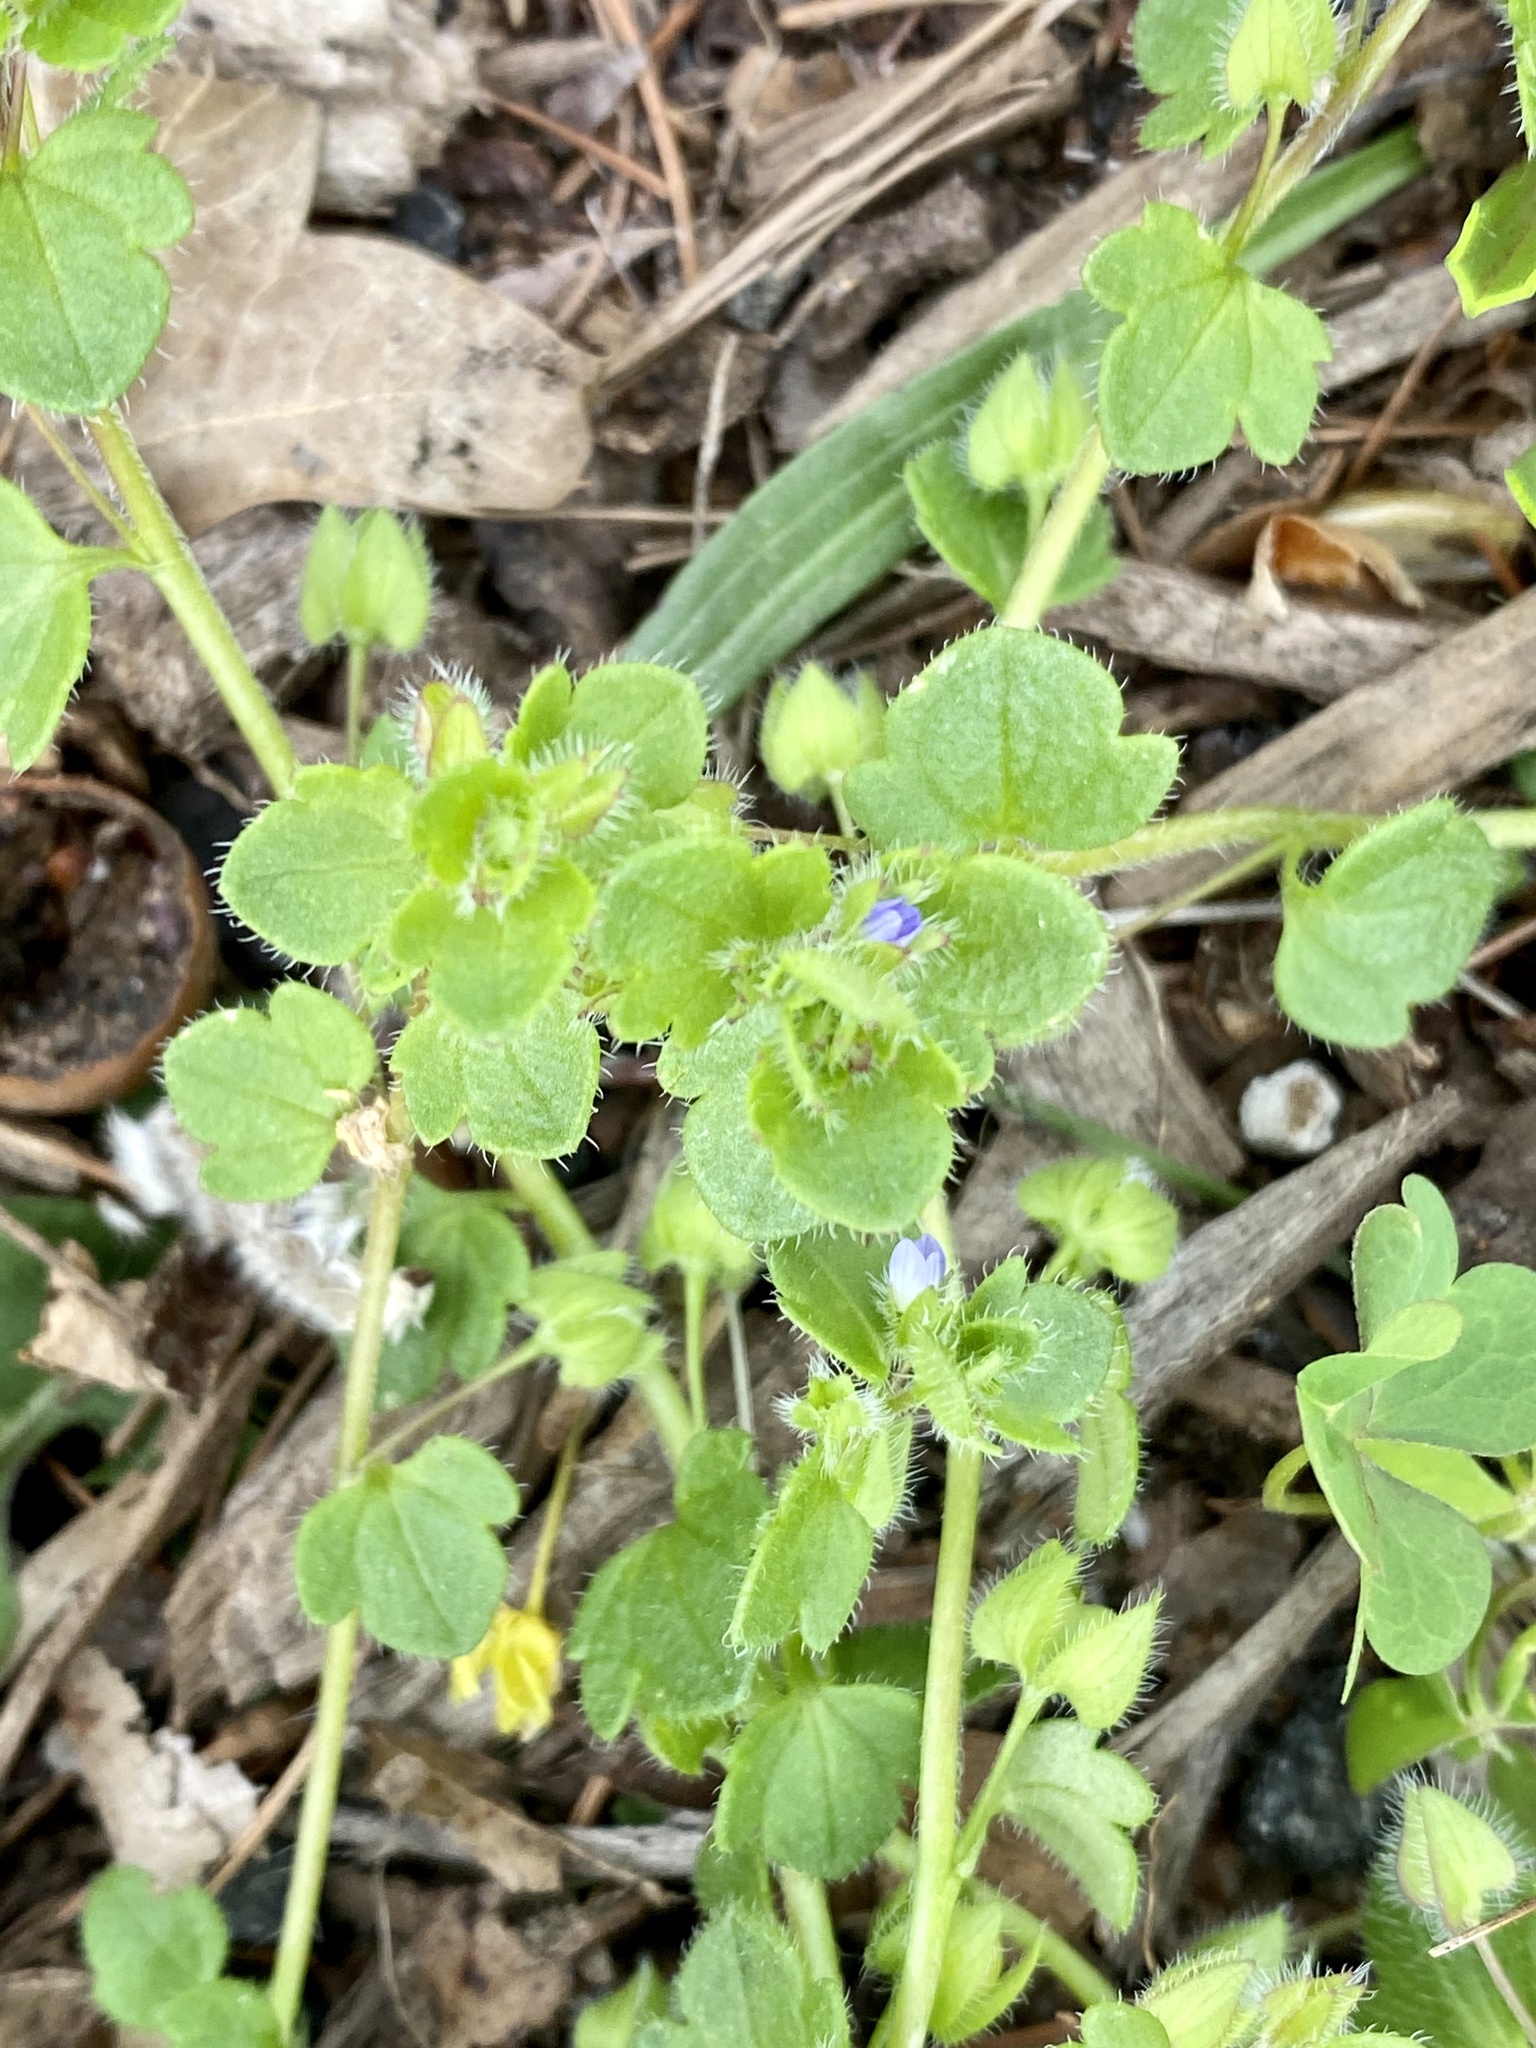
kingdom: Plantae
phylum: Tracheophyta
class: Magnoliopsida
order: Lamiales
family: Plantaginaceae
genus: Veronica
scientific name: Veronica hederifolia
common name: Ivy-leaved speedwell
